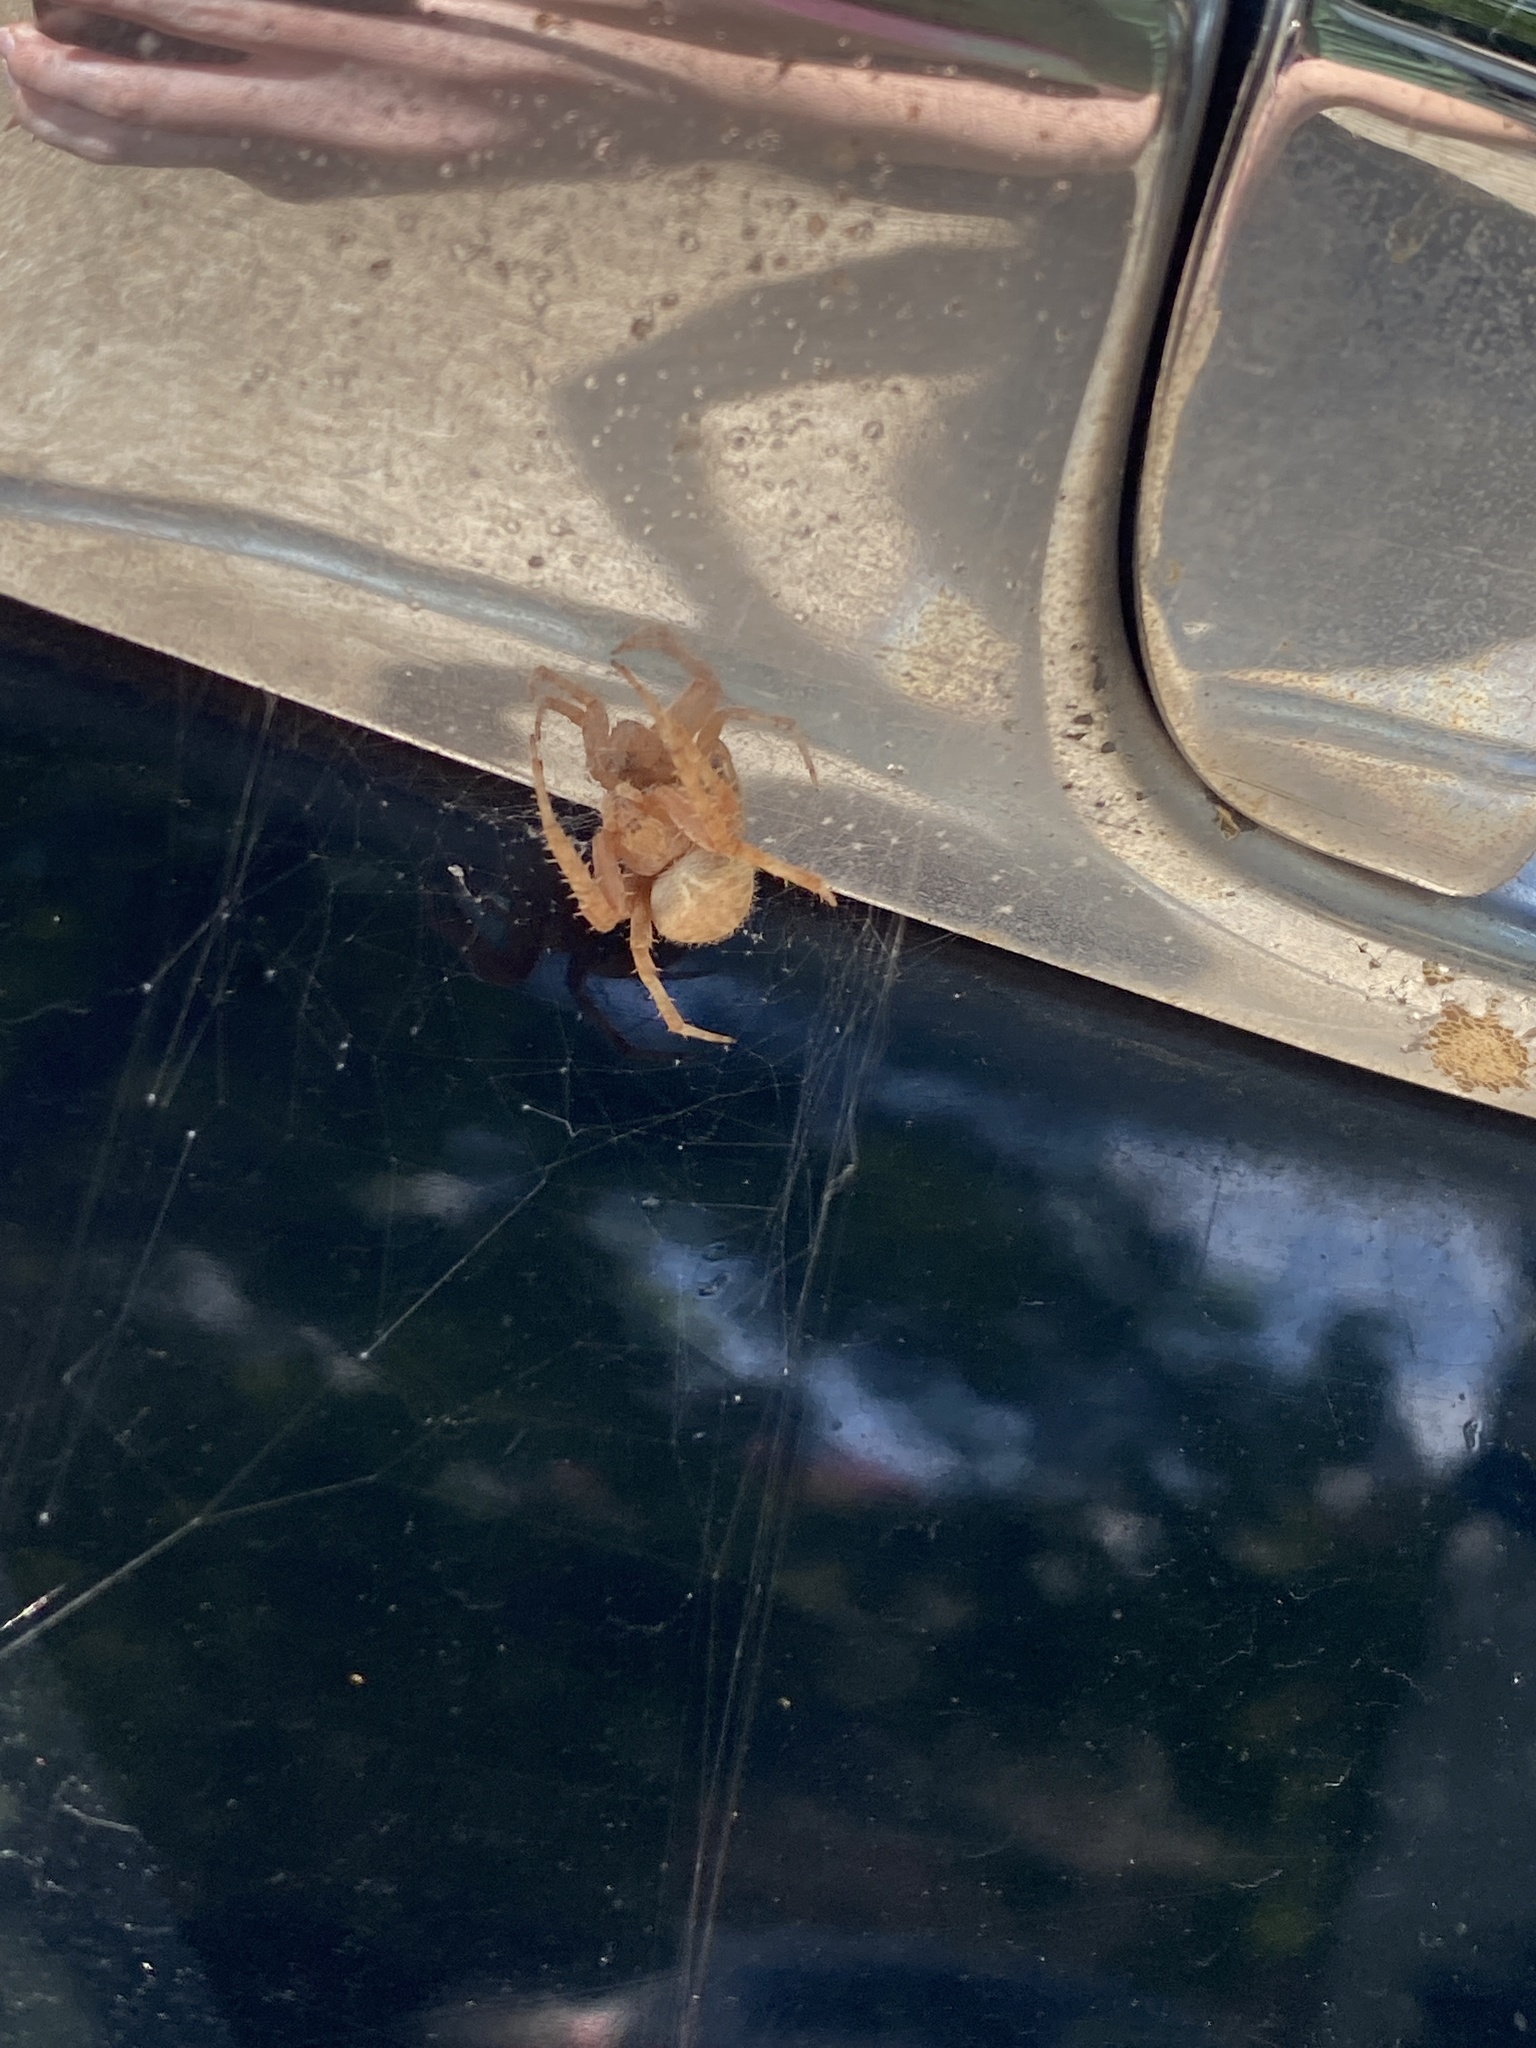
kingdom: Animalia
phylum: Arthropoda
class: Arachnida
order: Araneae
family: Araneidae
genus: Neoscona
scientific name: Neoscona crucifera
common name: Spotted orbweaver
